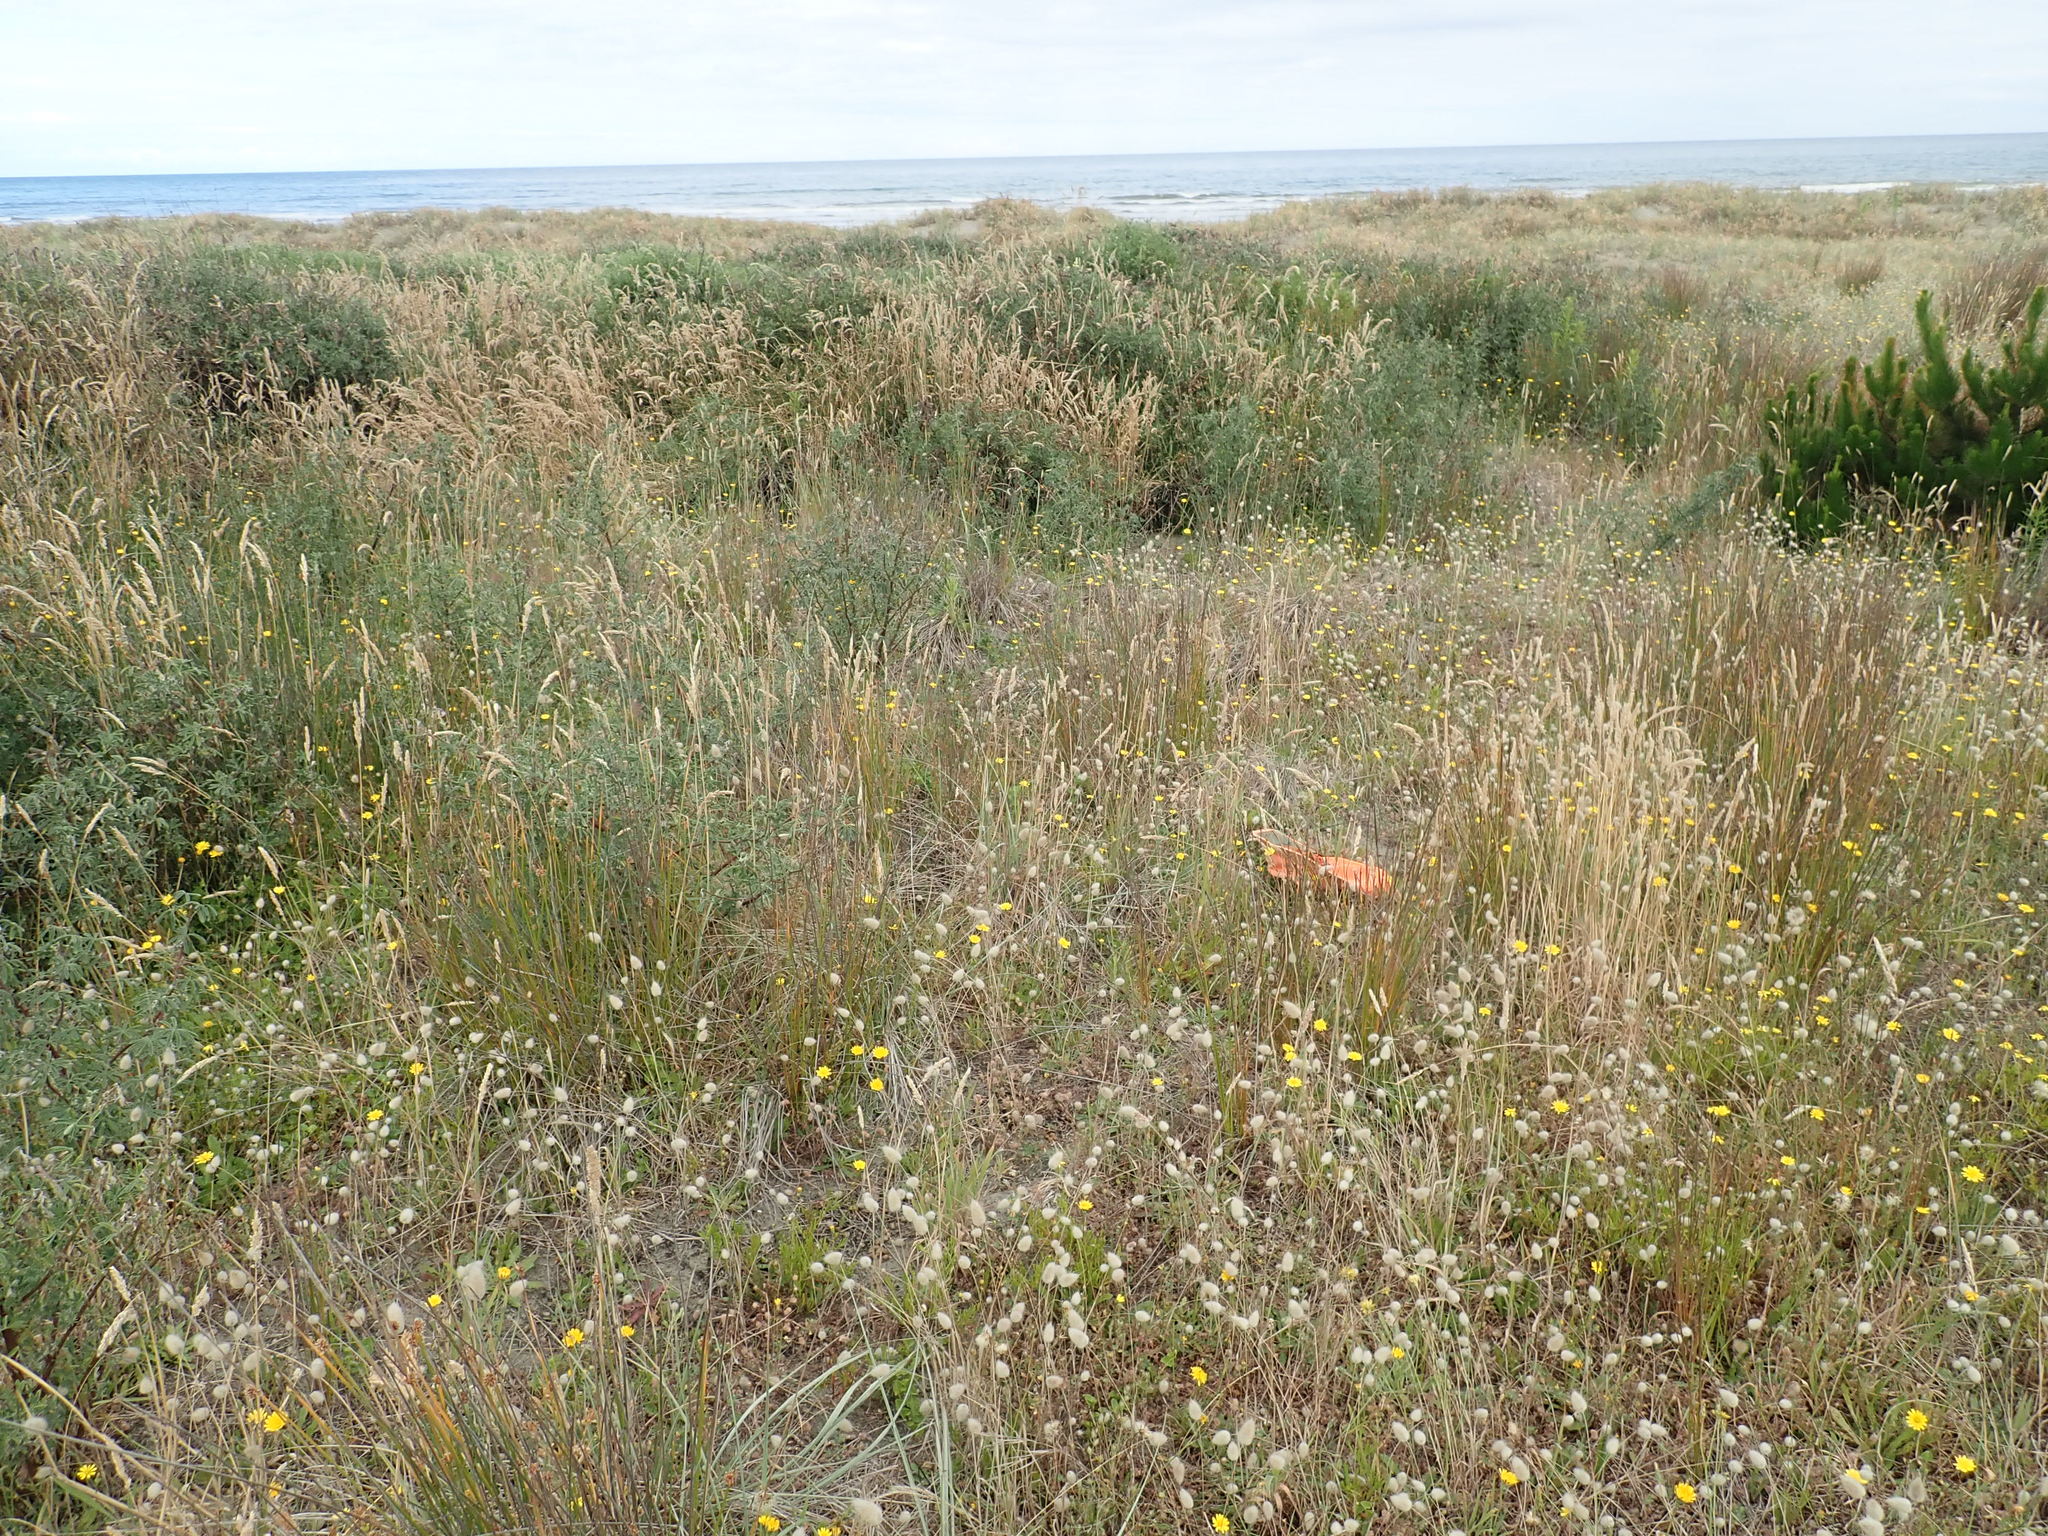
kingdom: Plantae
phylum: Tracheophyta
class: Magnoliopsida
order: Solanales
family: Convolvulaceae
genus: Calystegia
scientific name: Calystegia soldanella
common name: Sea bindweed
